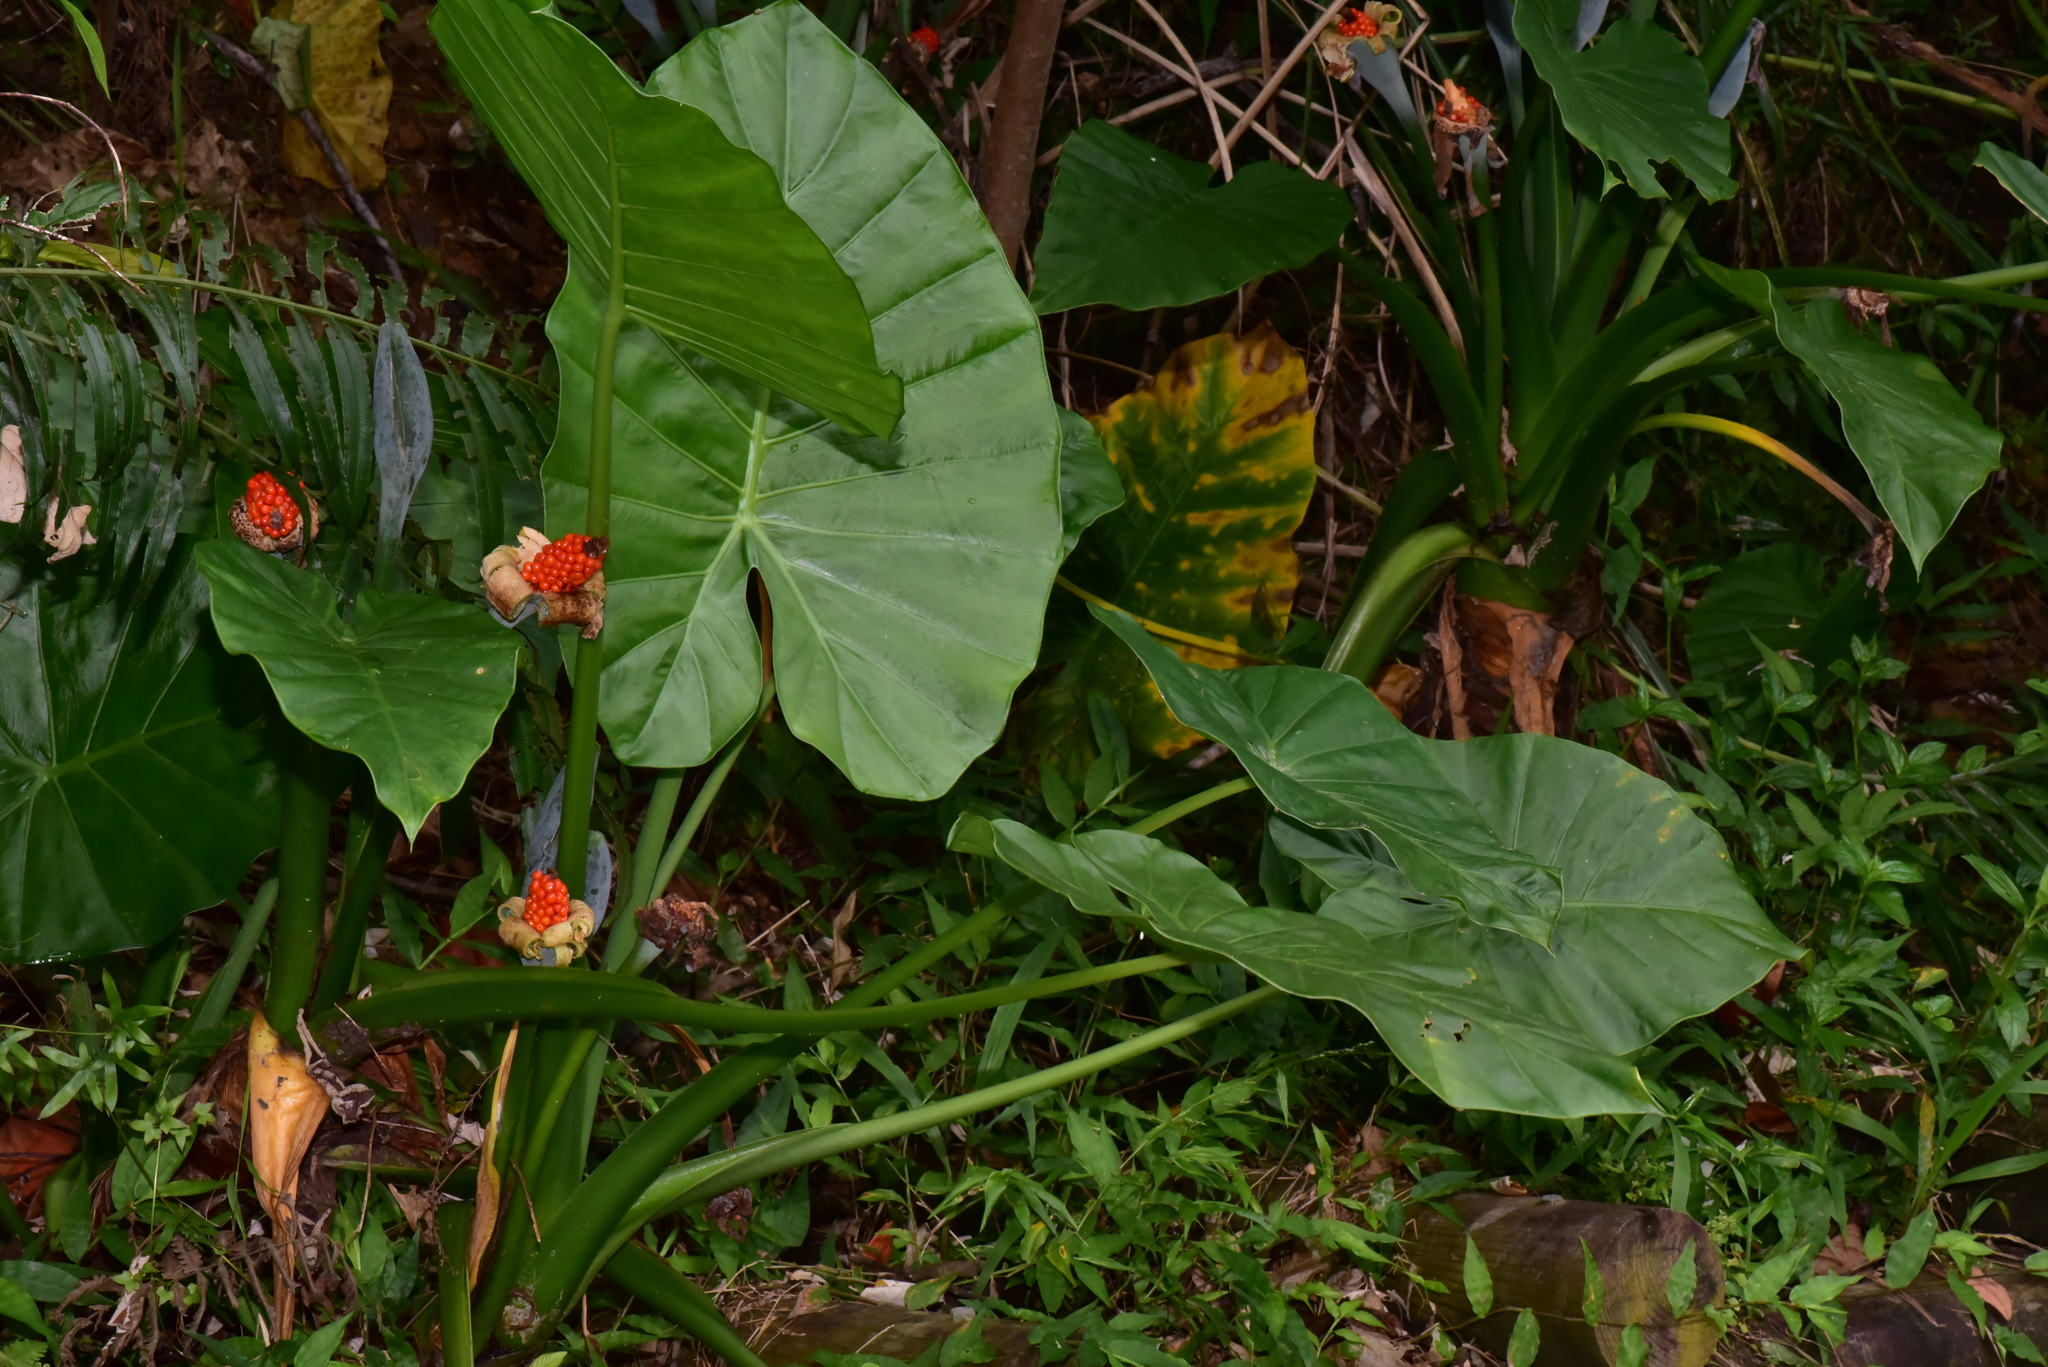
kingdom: Plantae
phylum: Tracheophyta
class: Liliopsida
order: Alismatales
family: Araceae
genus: Alocasia
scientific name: Alocasia odora
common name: Asian taro
